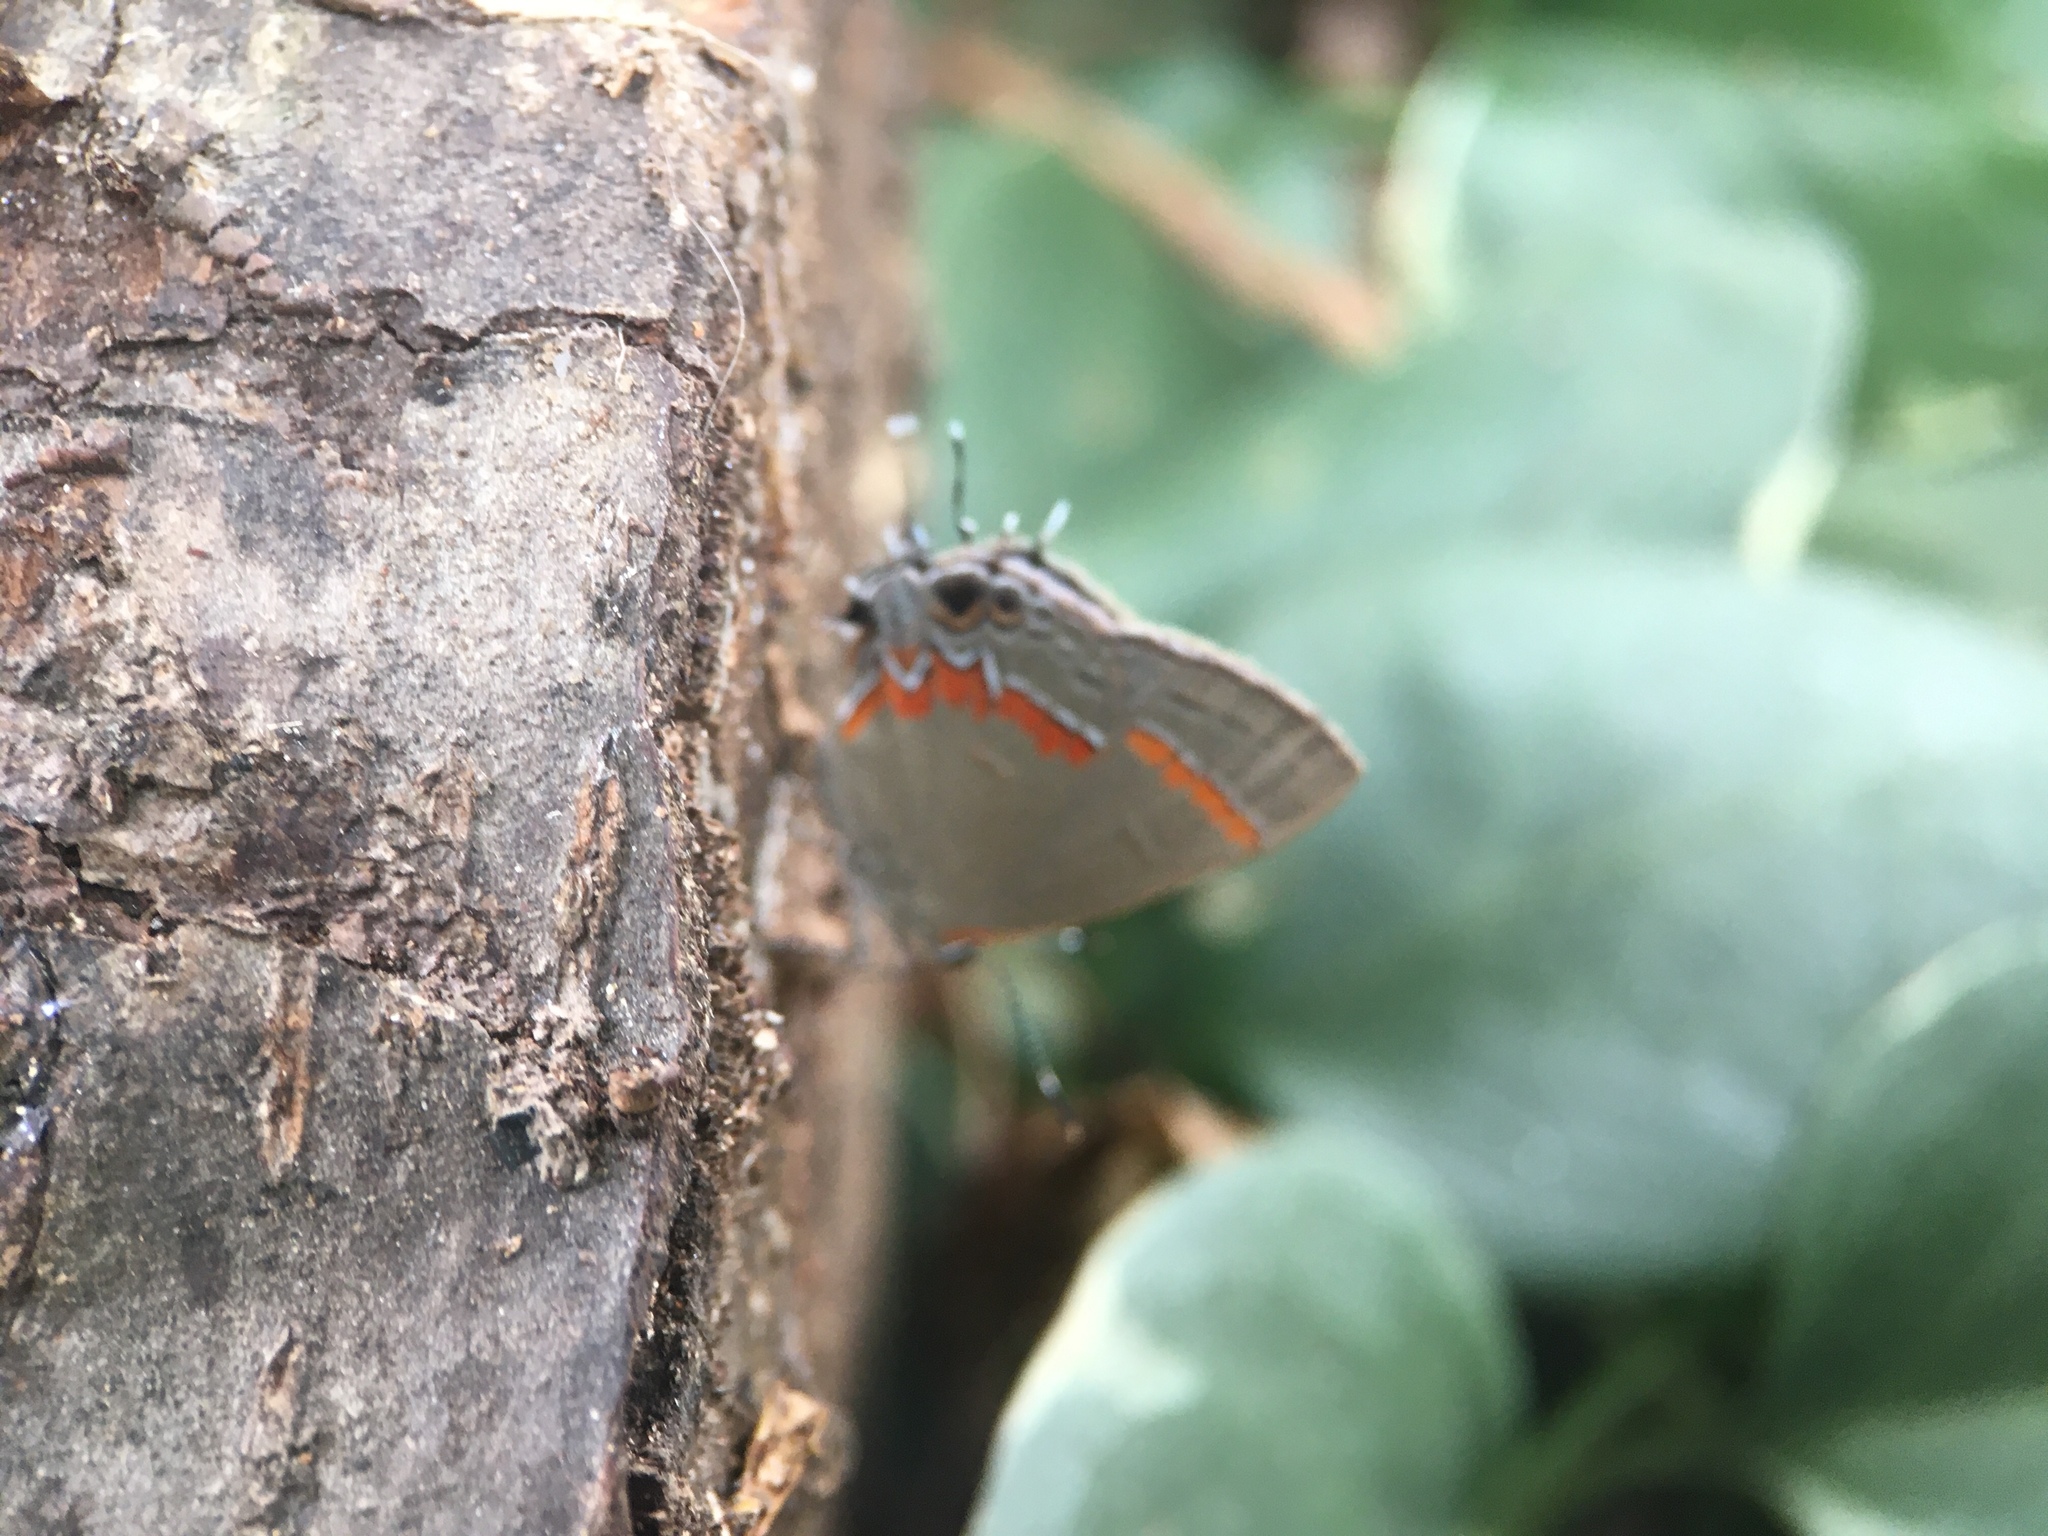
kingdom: Animalia
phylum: Arthropoda
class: Insecta
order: Lepidoptera
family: Lycaenidae
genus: Calycopis
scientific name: Calycopis cecrops
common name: Red-banded hairstreak
